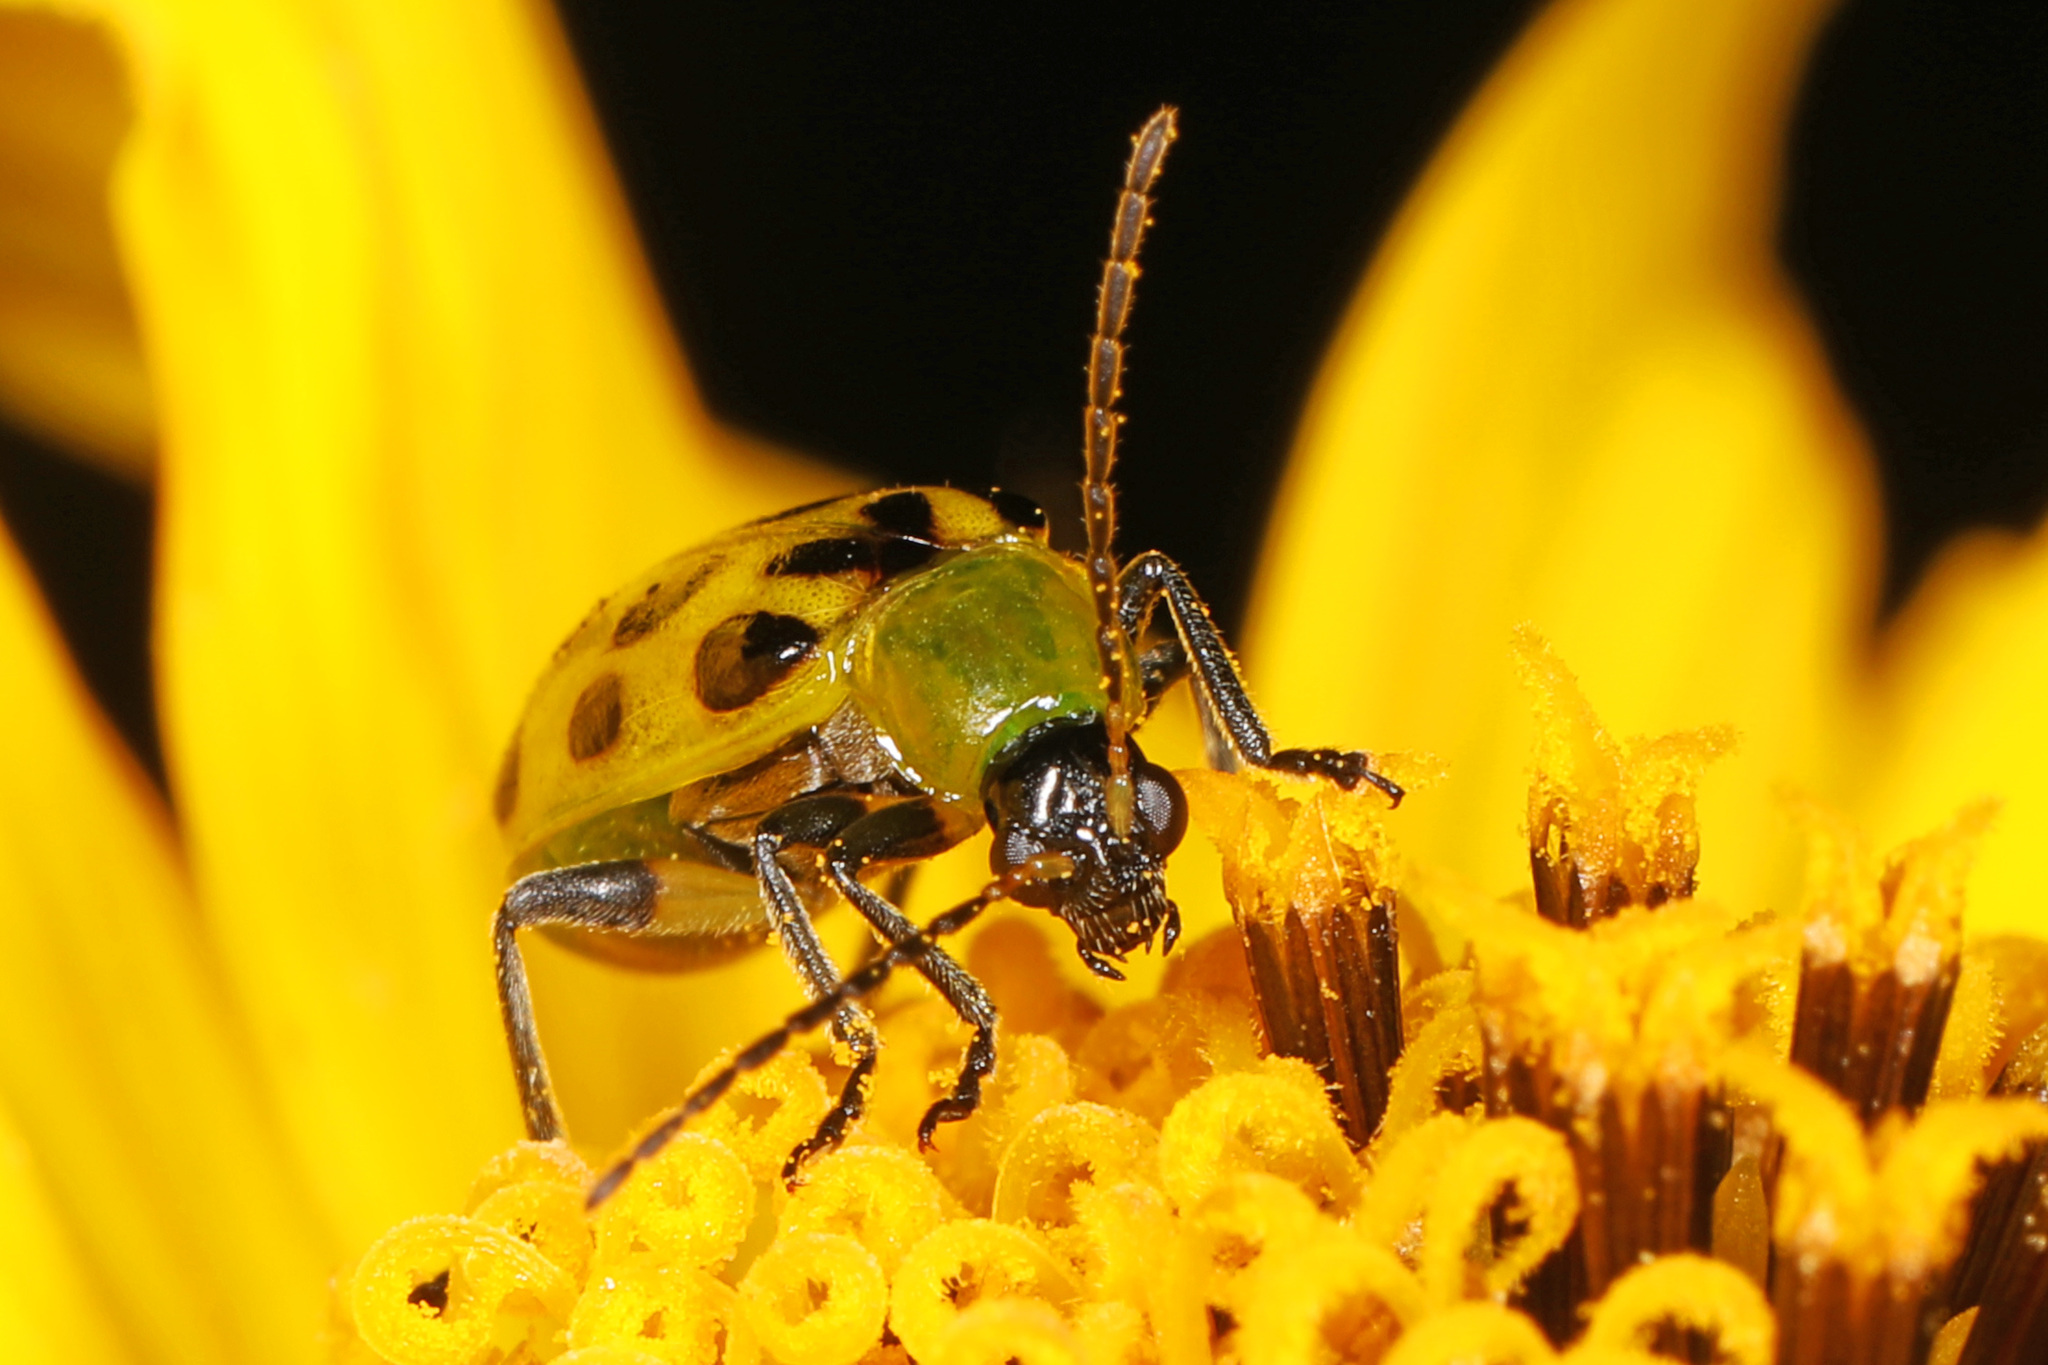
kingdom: Animalia
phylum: Arthropoda
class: Insecta
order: Coleoptera
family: Chrysomelidae
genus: Diabrotica
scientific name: Diabrotica undecimpunctata
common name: Spotted cucumber beetle
